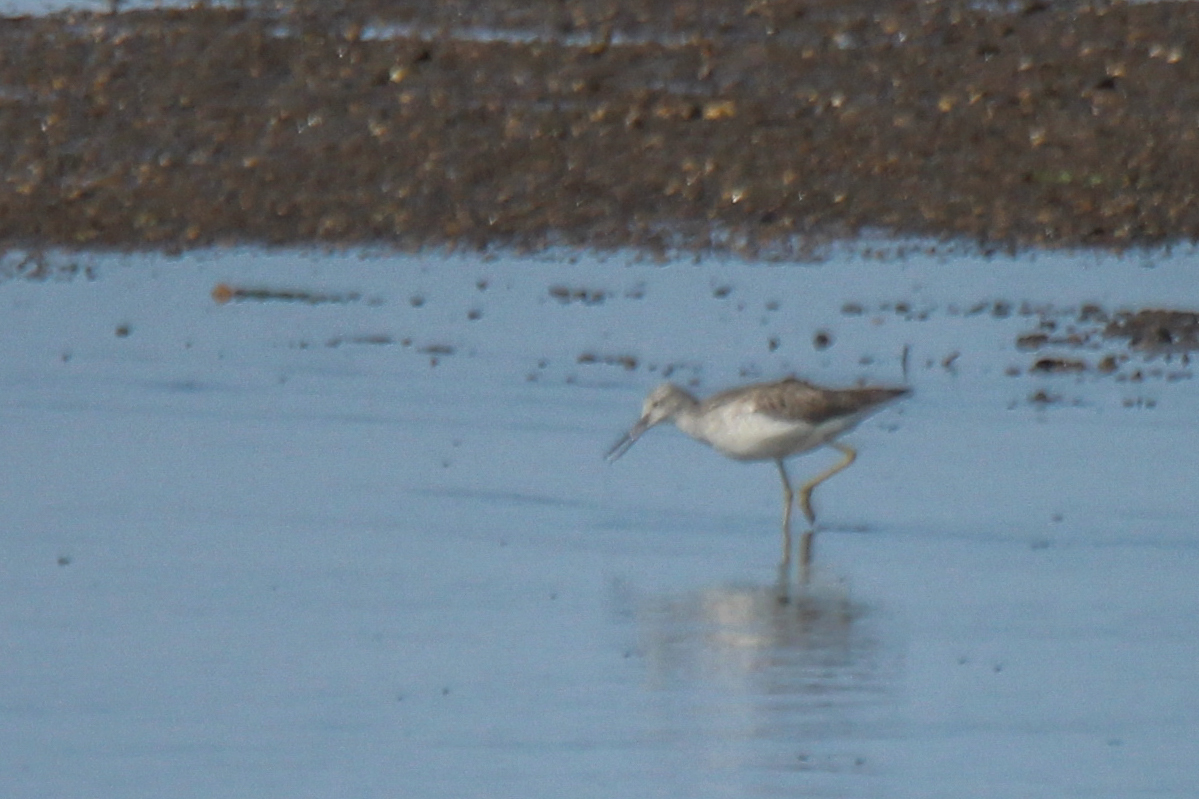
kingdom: Animalia
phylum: Chordata
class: Aves
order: Charadriiformes
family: Scolopacidae
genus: Tringa
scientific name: Tringa nebularia
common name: Common greenshank
